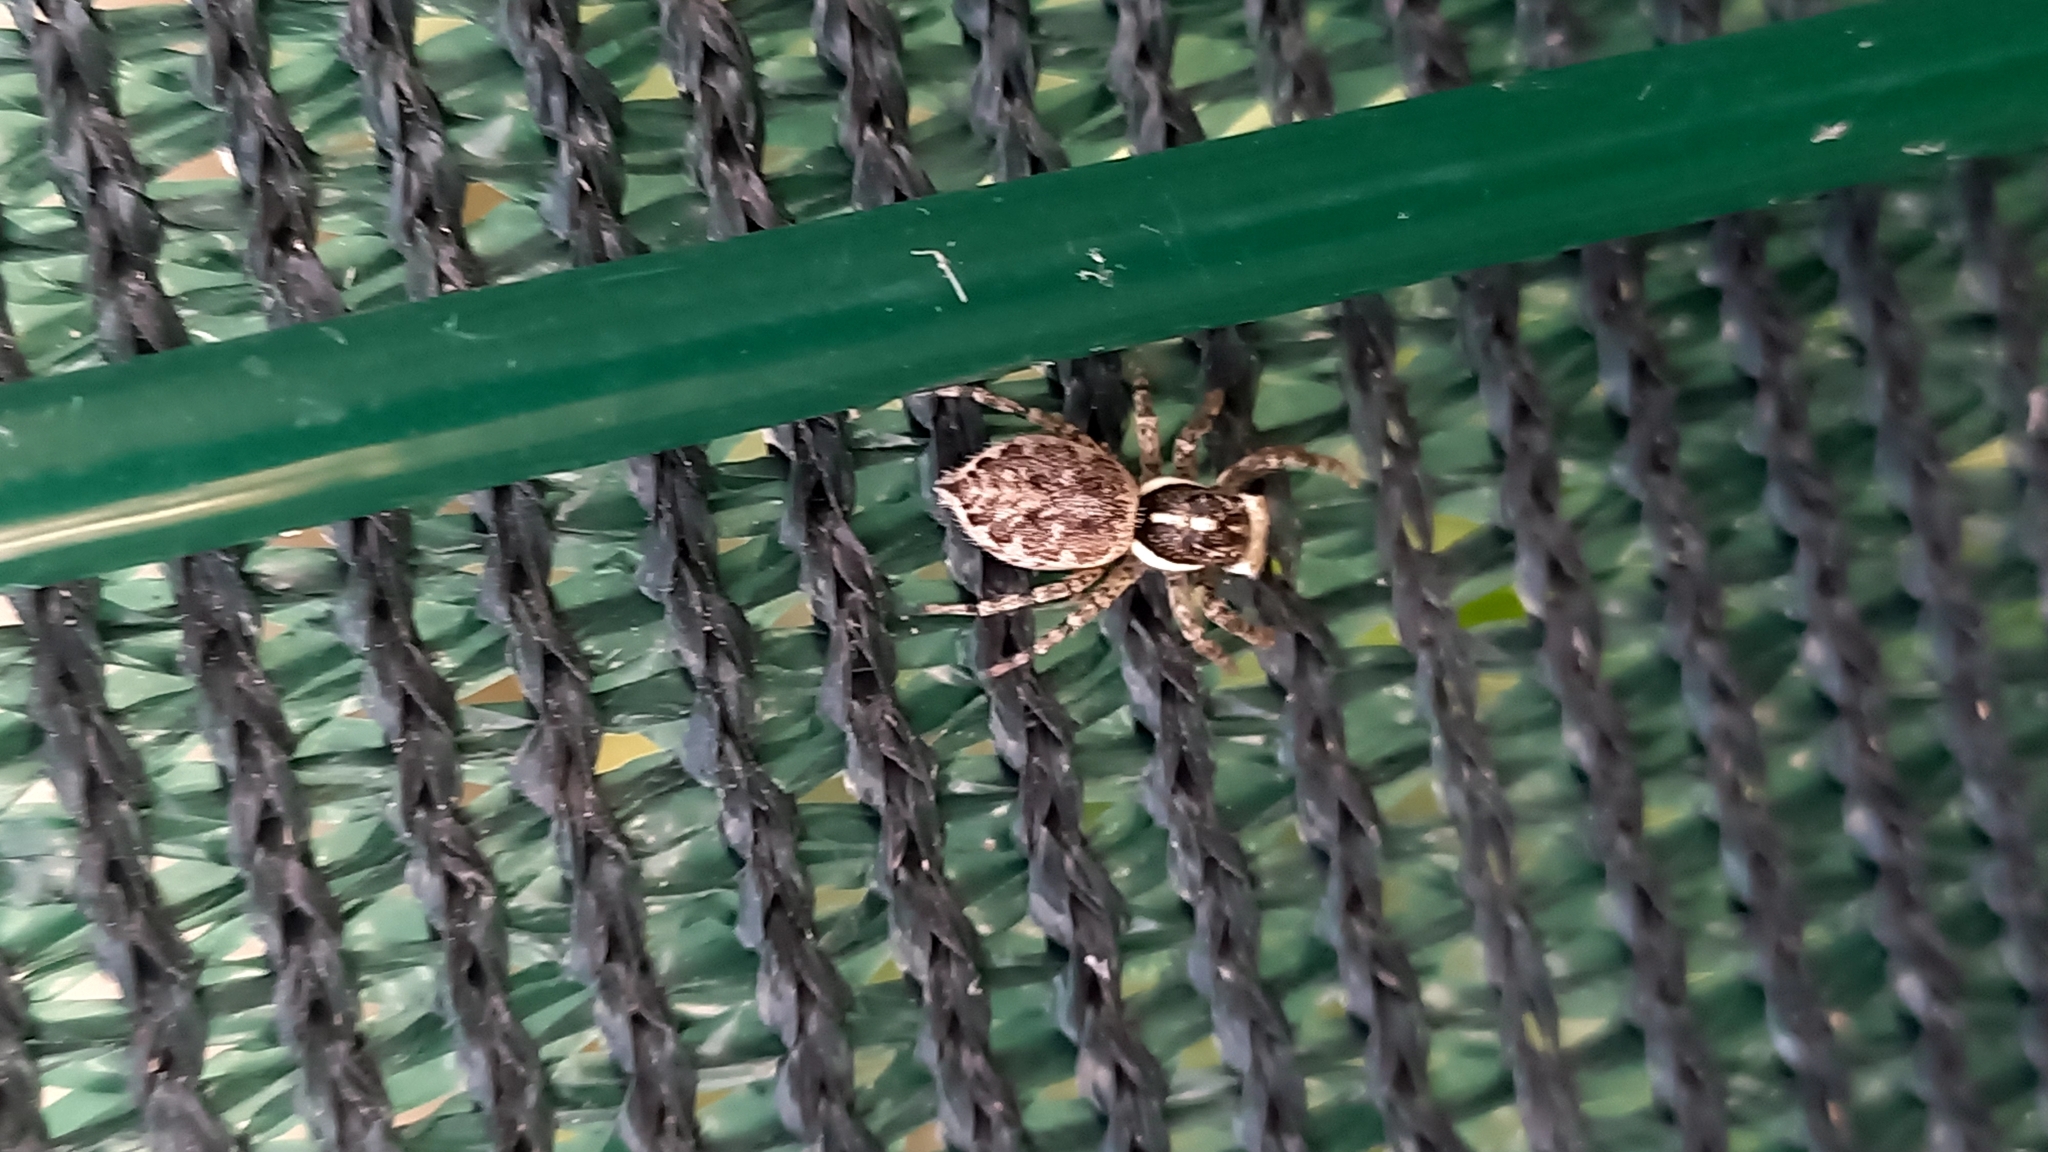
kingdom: Animalia
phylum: Arthropoda
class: Arachnida
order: Araneae
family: Salticidae
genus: Menemerus
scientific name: Menemerus semilimbatus
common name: Jumping spider
